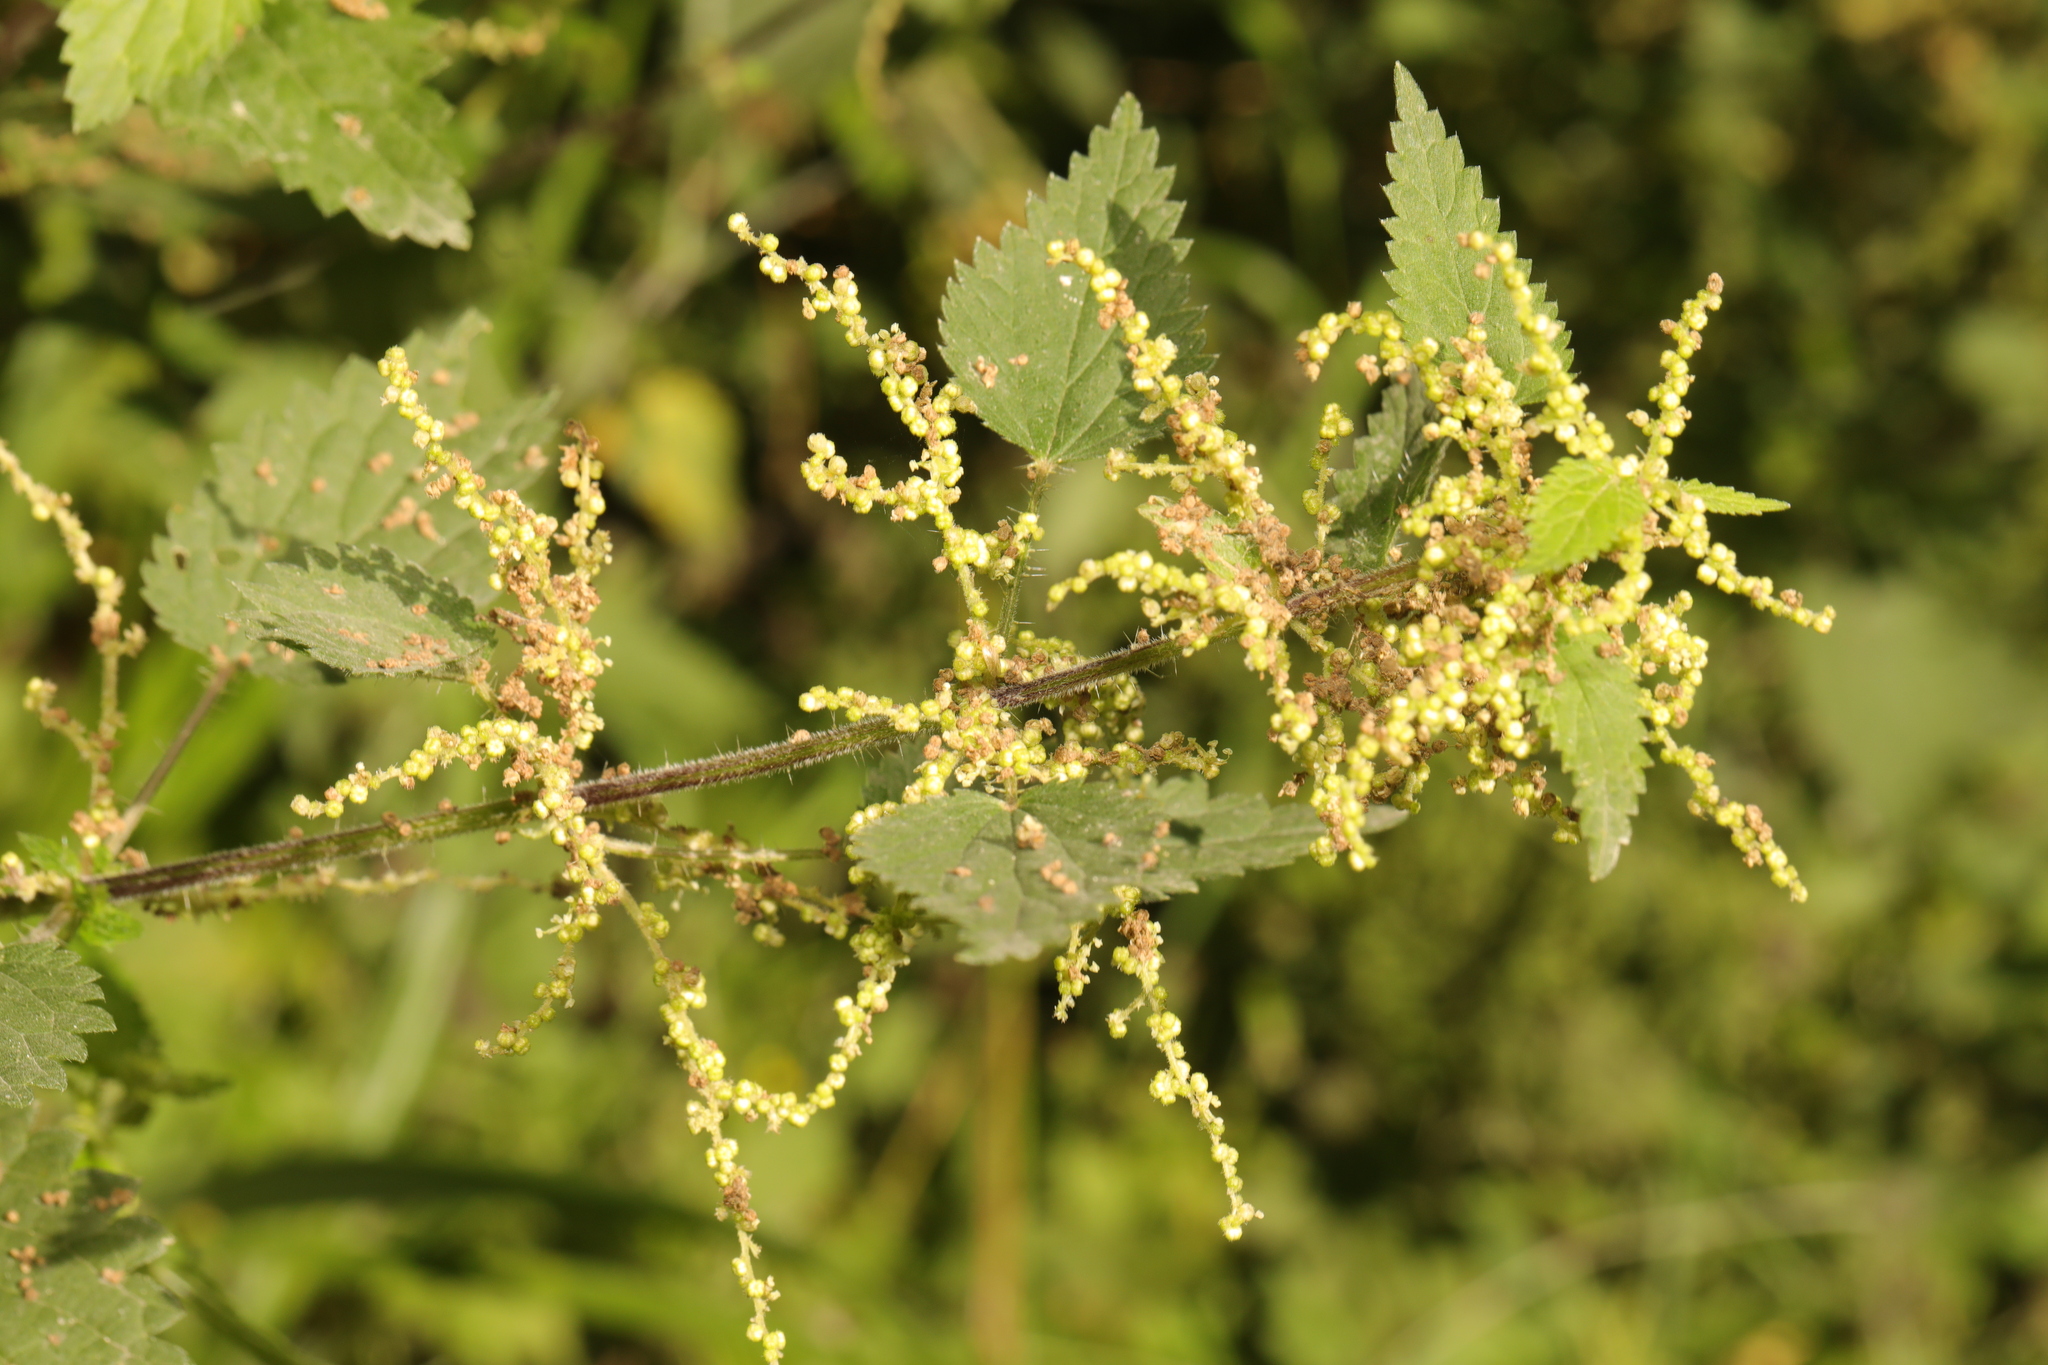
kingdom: Plantae
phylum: Tracheophyta
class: Magnoliopsida
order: Rosales
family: Urticaceae
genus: Urtica
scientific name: Urtica dioica
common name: Common nettle
